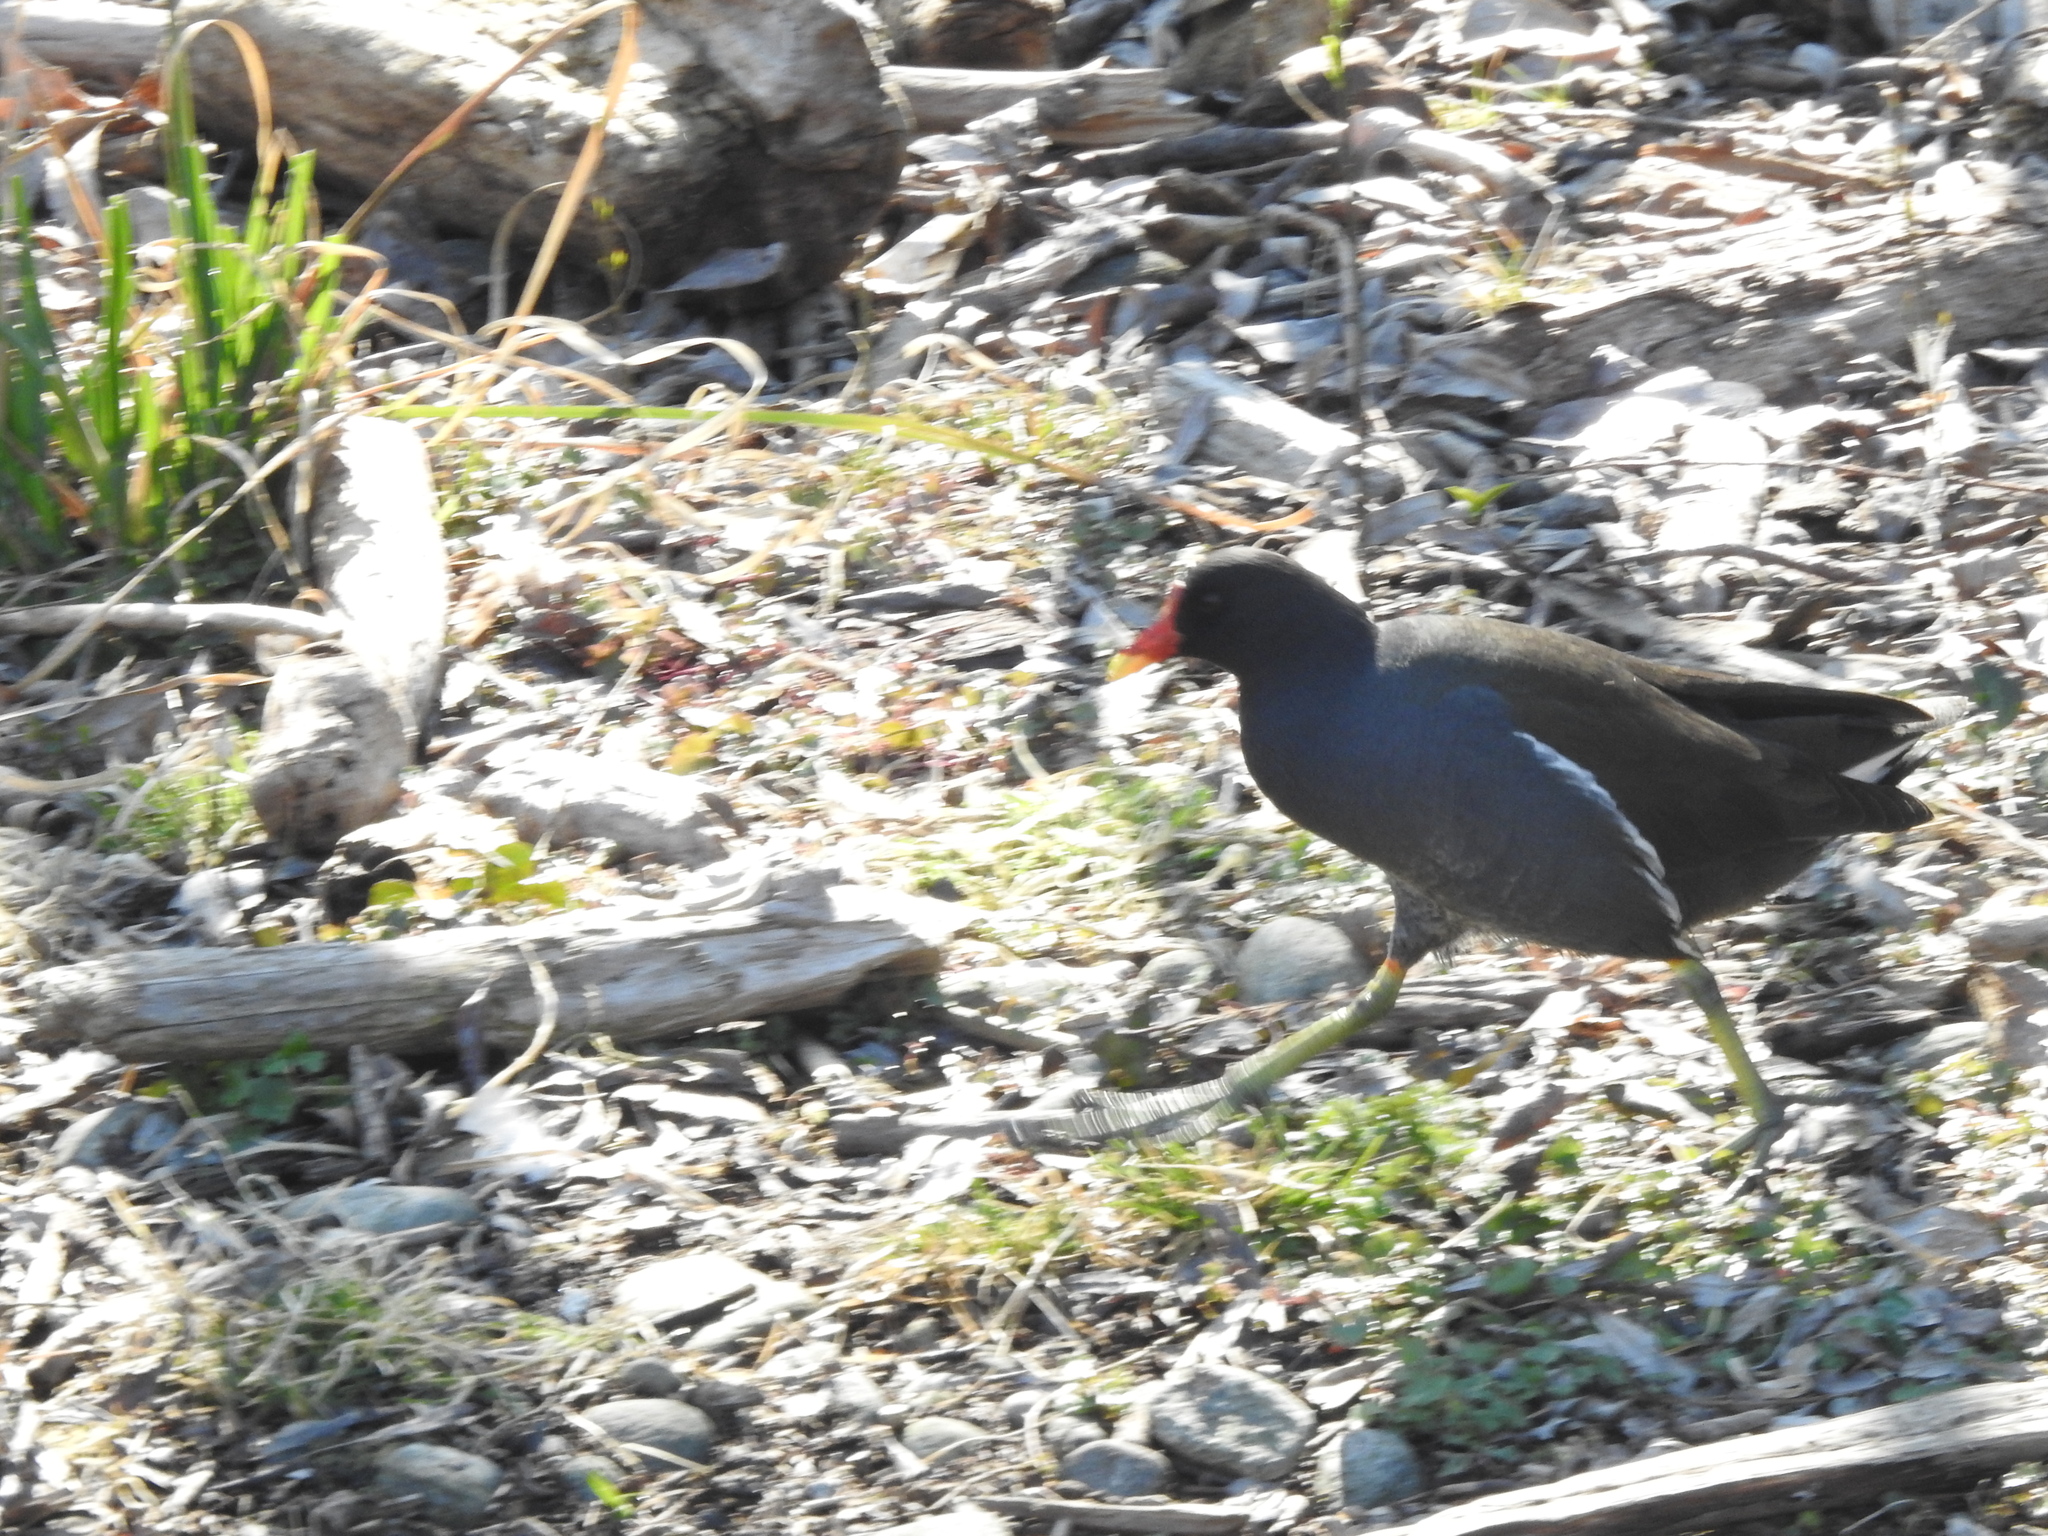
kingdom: Animalia
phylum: Chordata
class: Aves
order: Gruiformes
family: Rallidae
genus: Gallinula
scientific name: Gallinula chloropus
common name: Common moorhen
